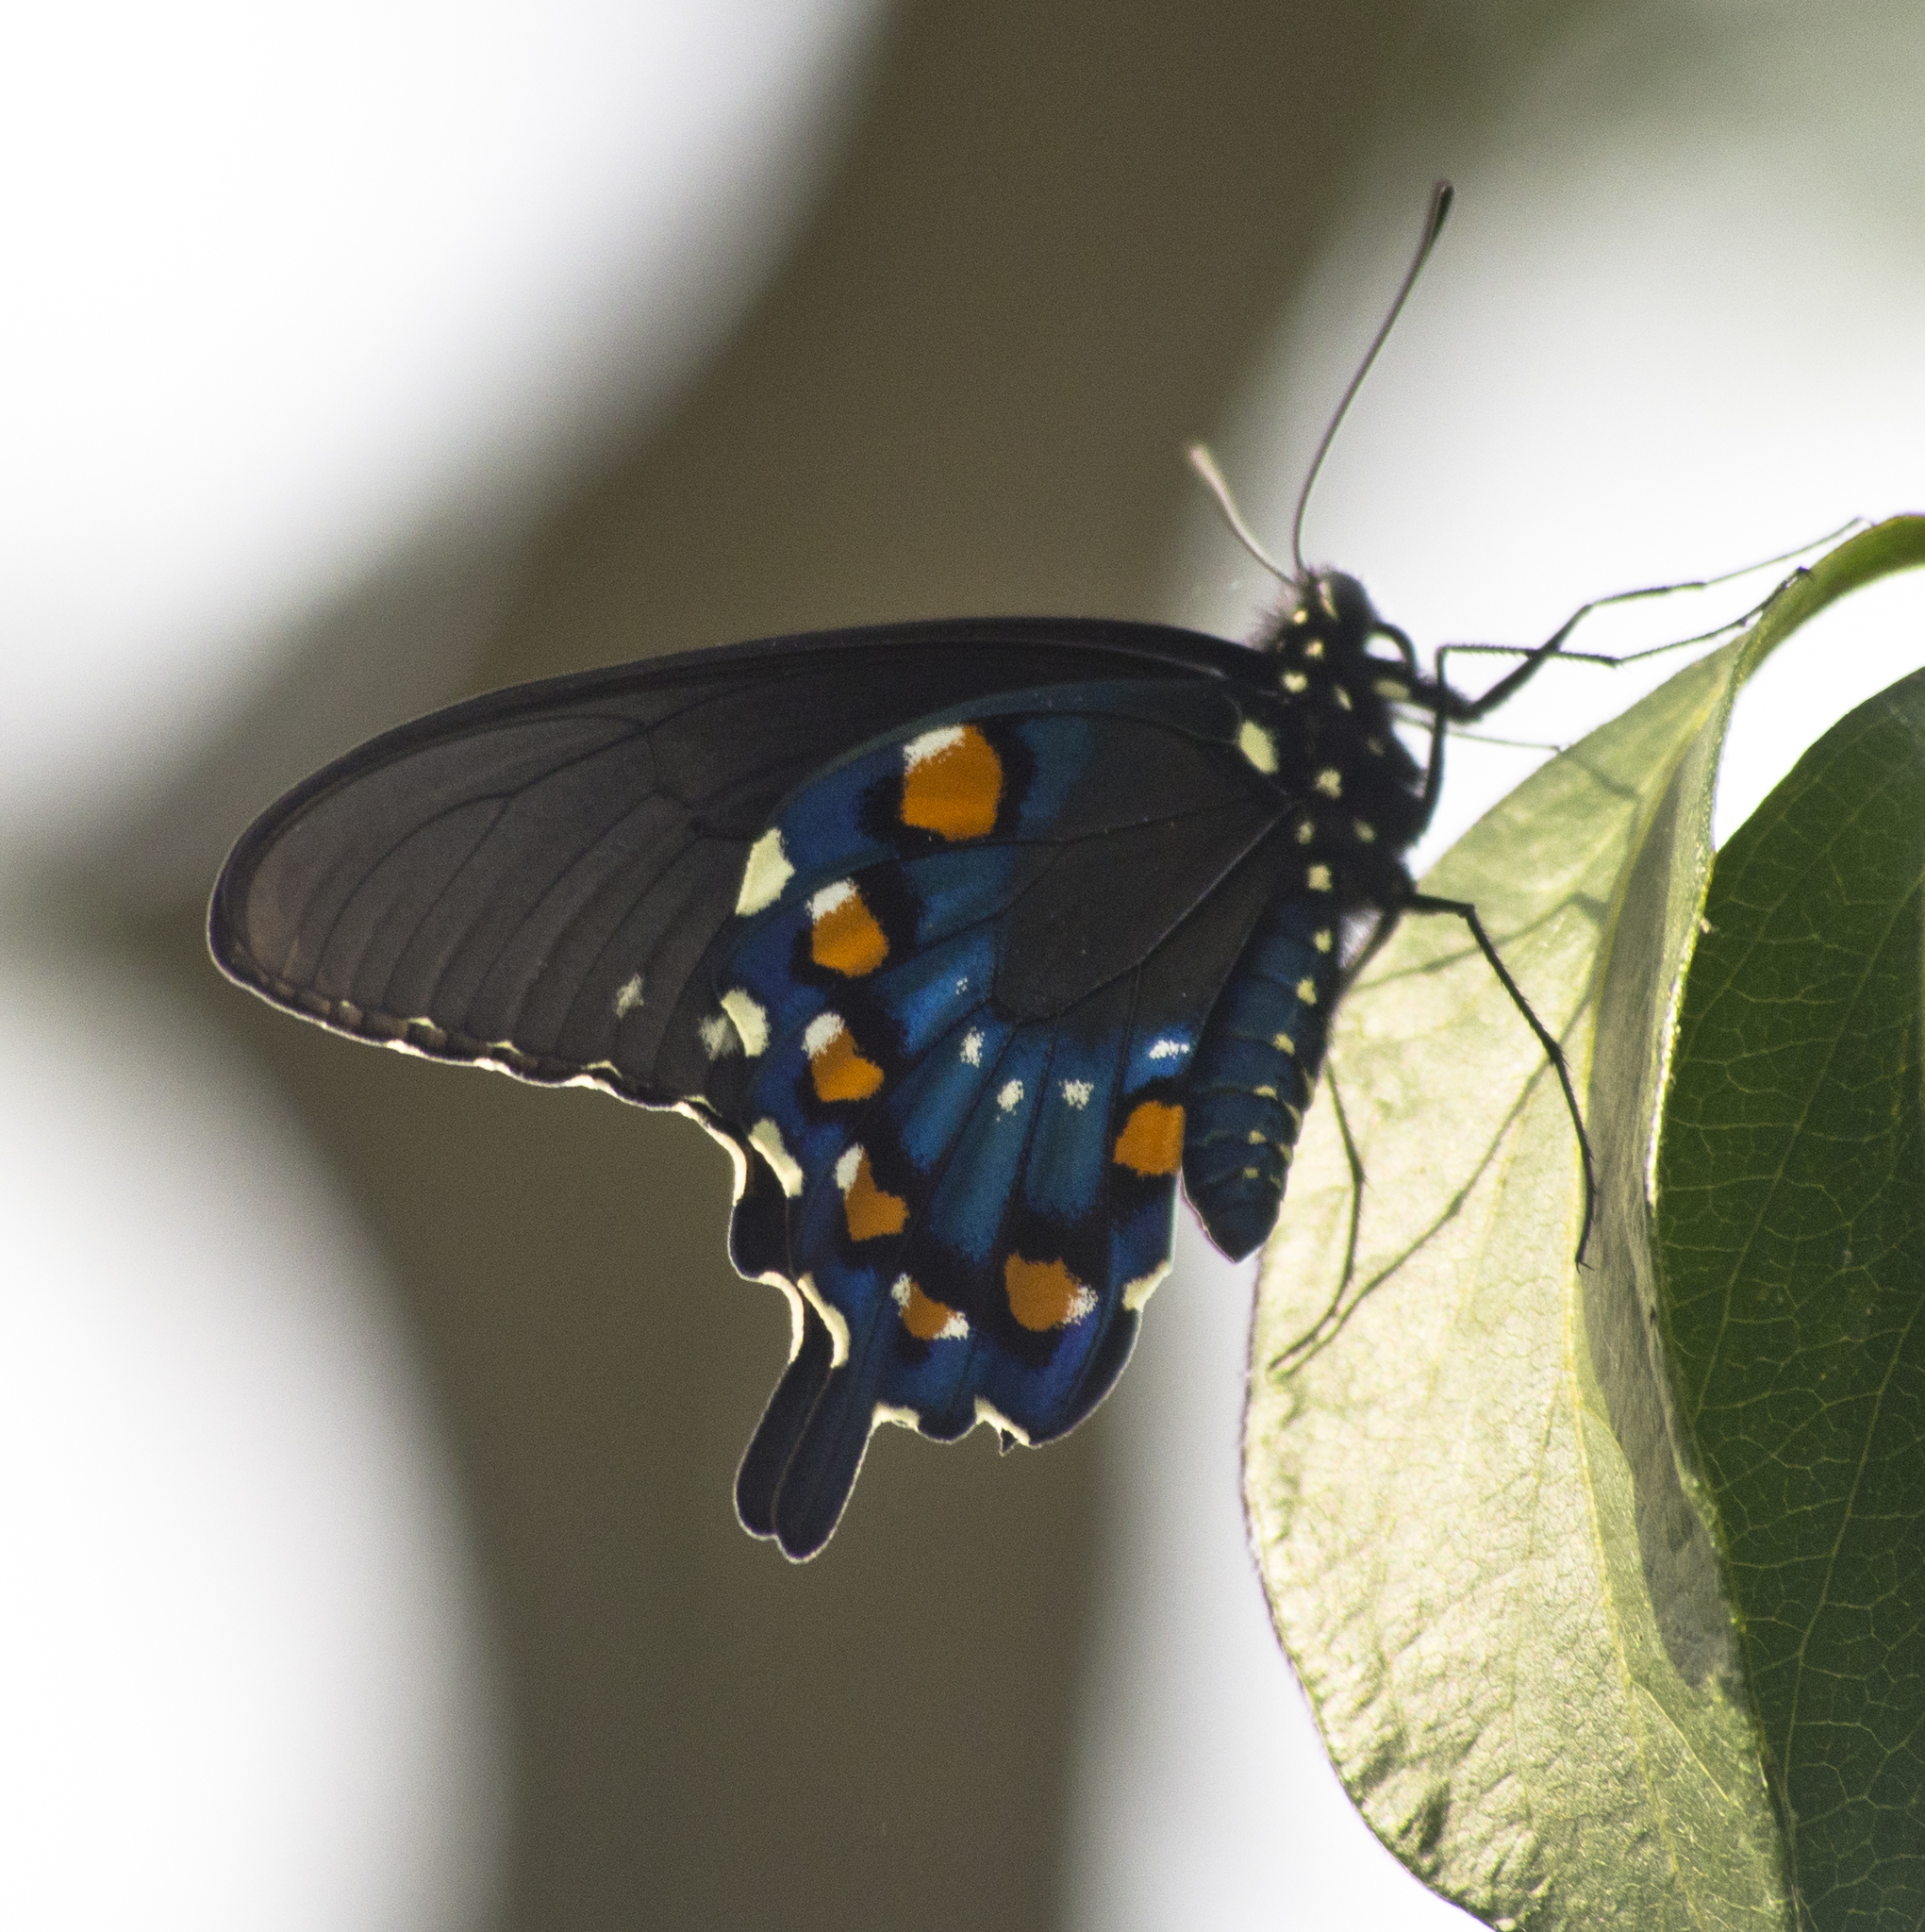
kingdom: Animalia
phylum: Arthropoda
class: Insecta
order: Lepidoptera
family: Papilionidae
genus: Battus
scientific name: Battus philenor
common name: Pipevine swallowtail
